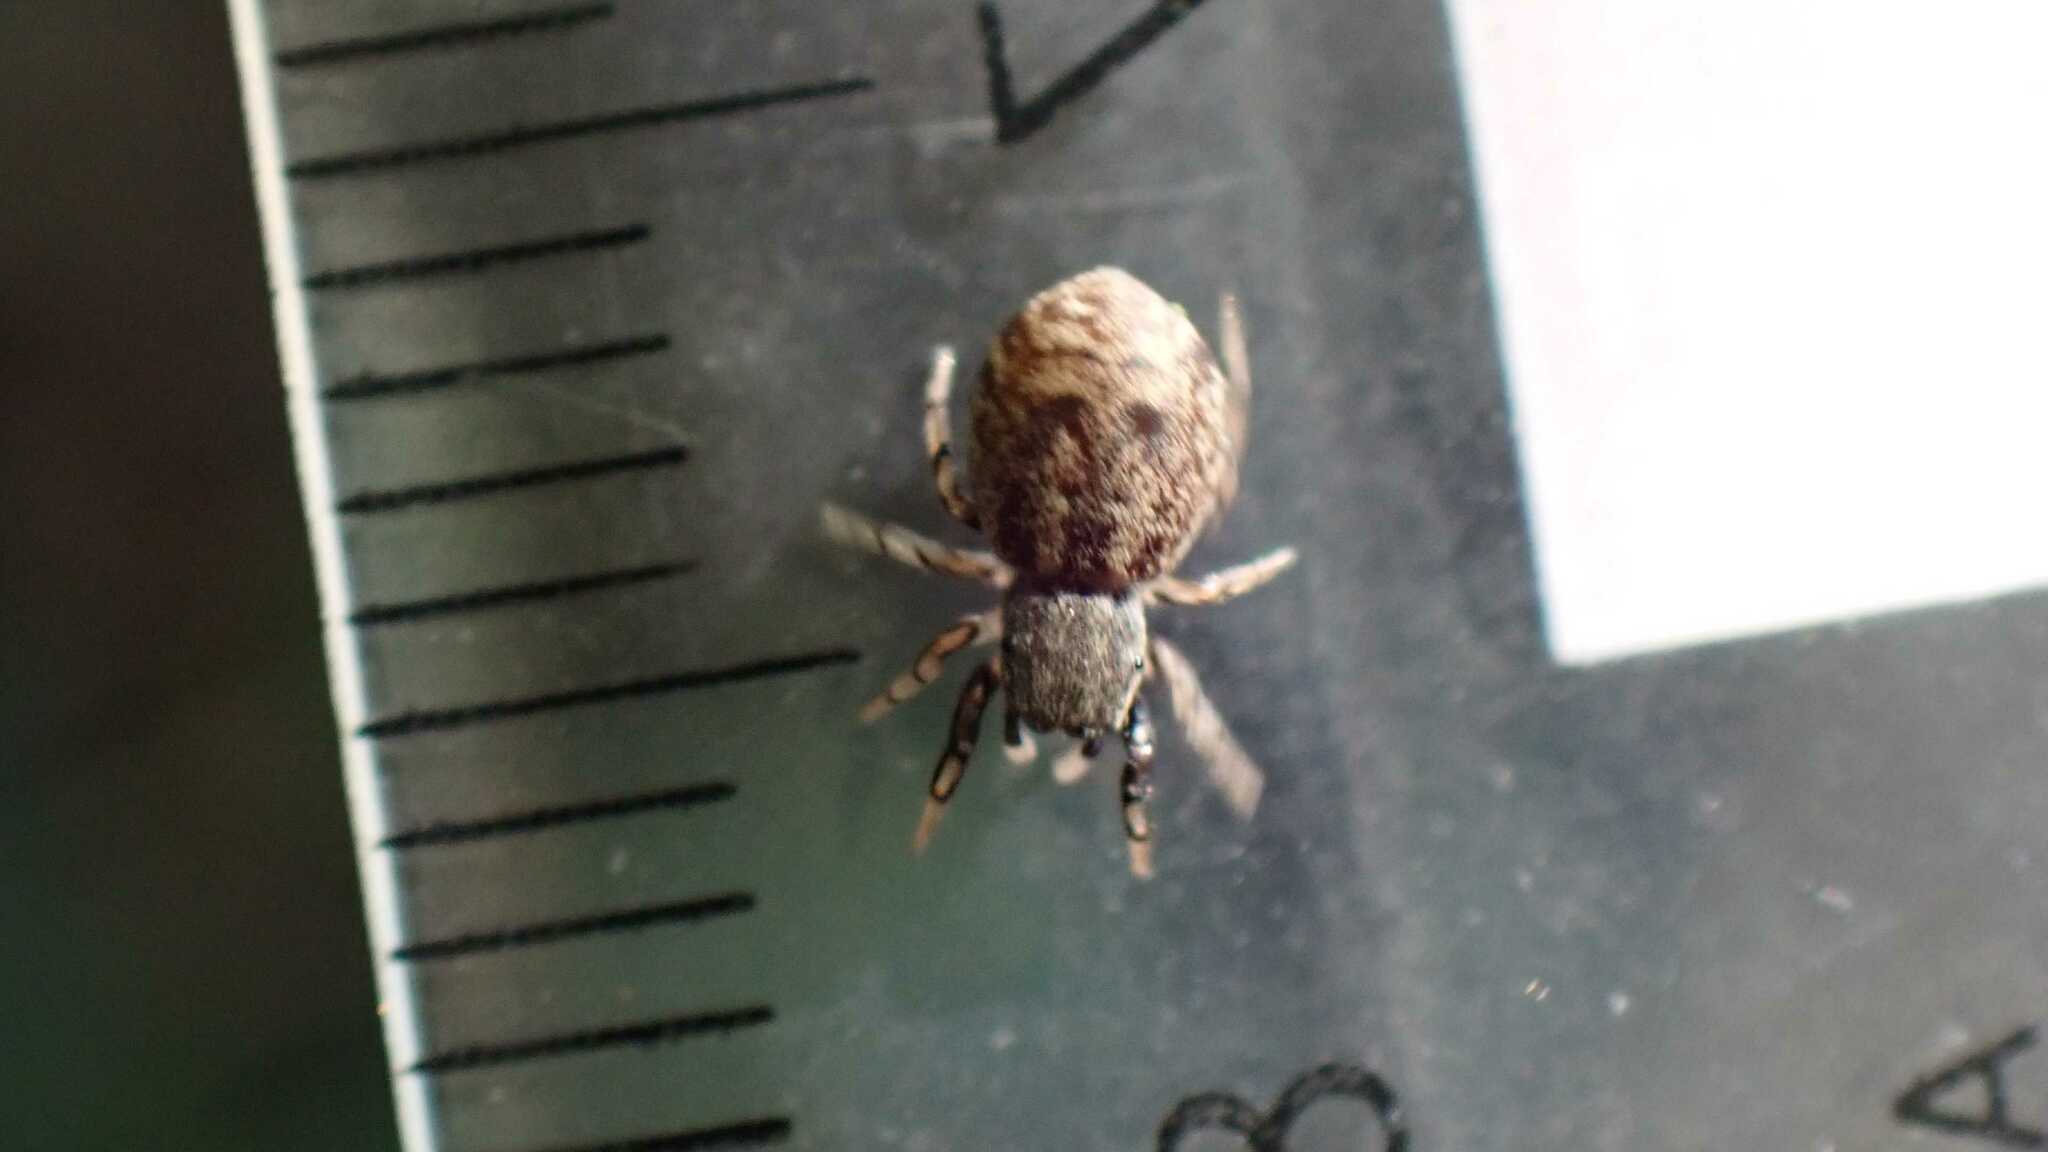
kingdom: Animalia
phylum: Arthropoda
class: Arachnida
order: Araneae
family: Salticidae
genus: Ballus
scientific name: Ballus chalybeius
